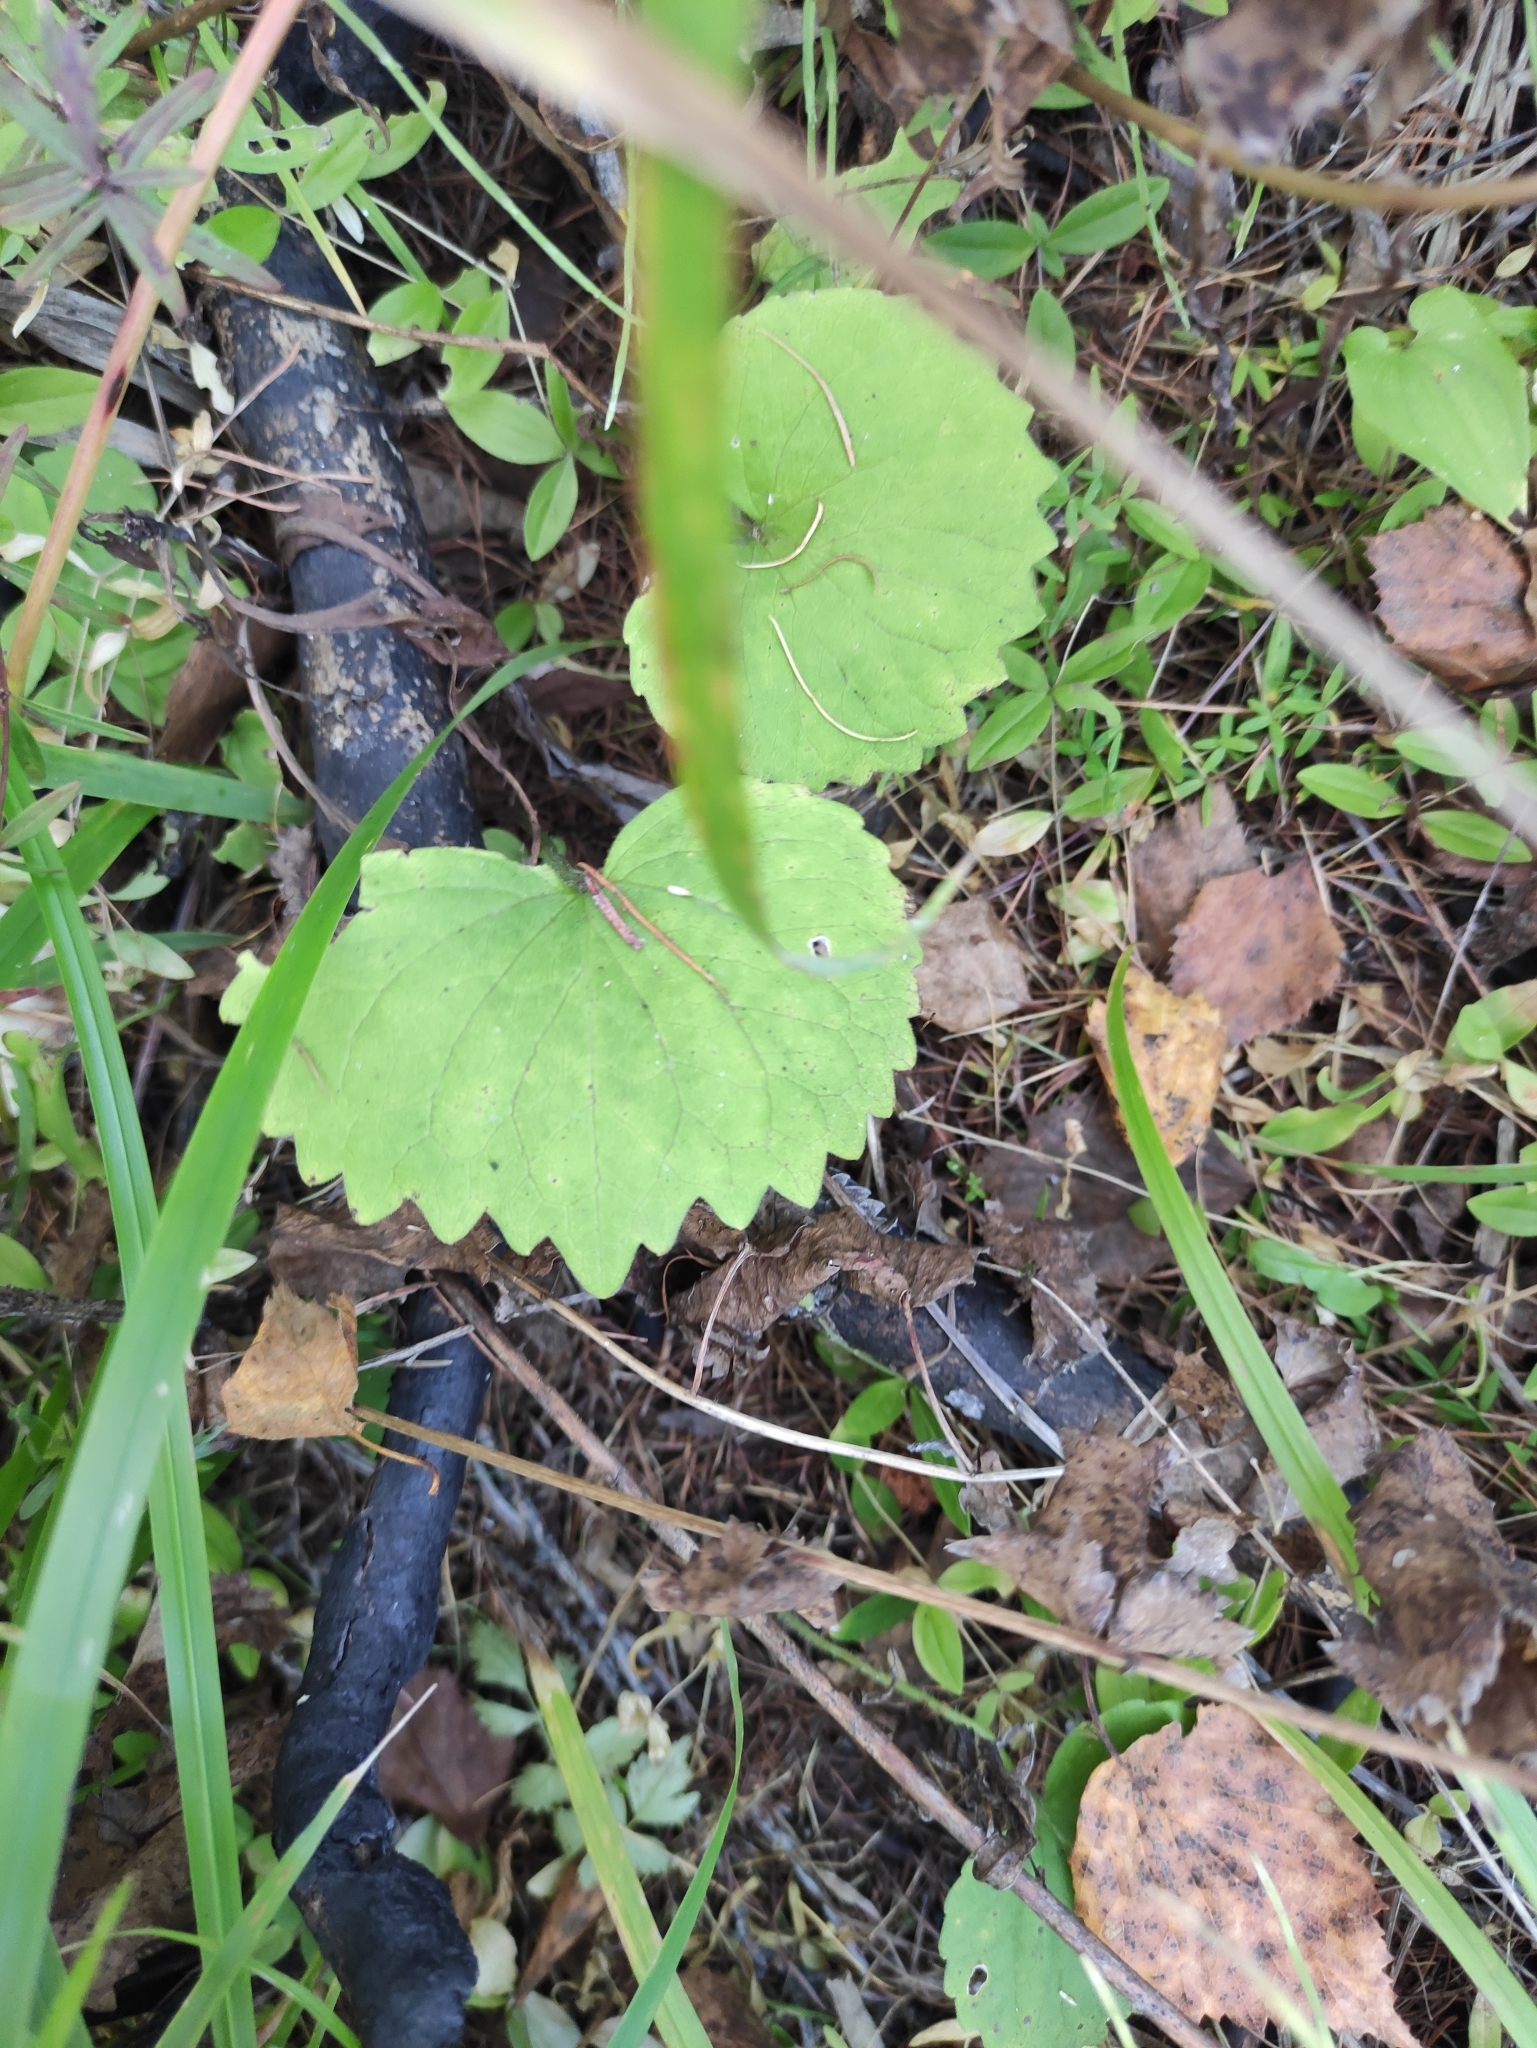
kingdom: Plantae
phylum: Tracheophyta
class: Magnoliopsida
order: Malpighiales
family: Violaceae
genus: Viola
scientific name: Viola uniflora
